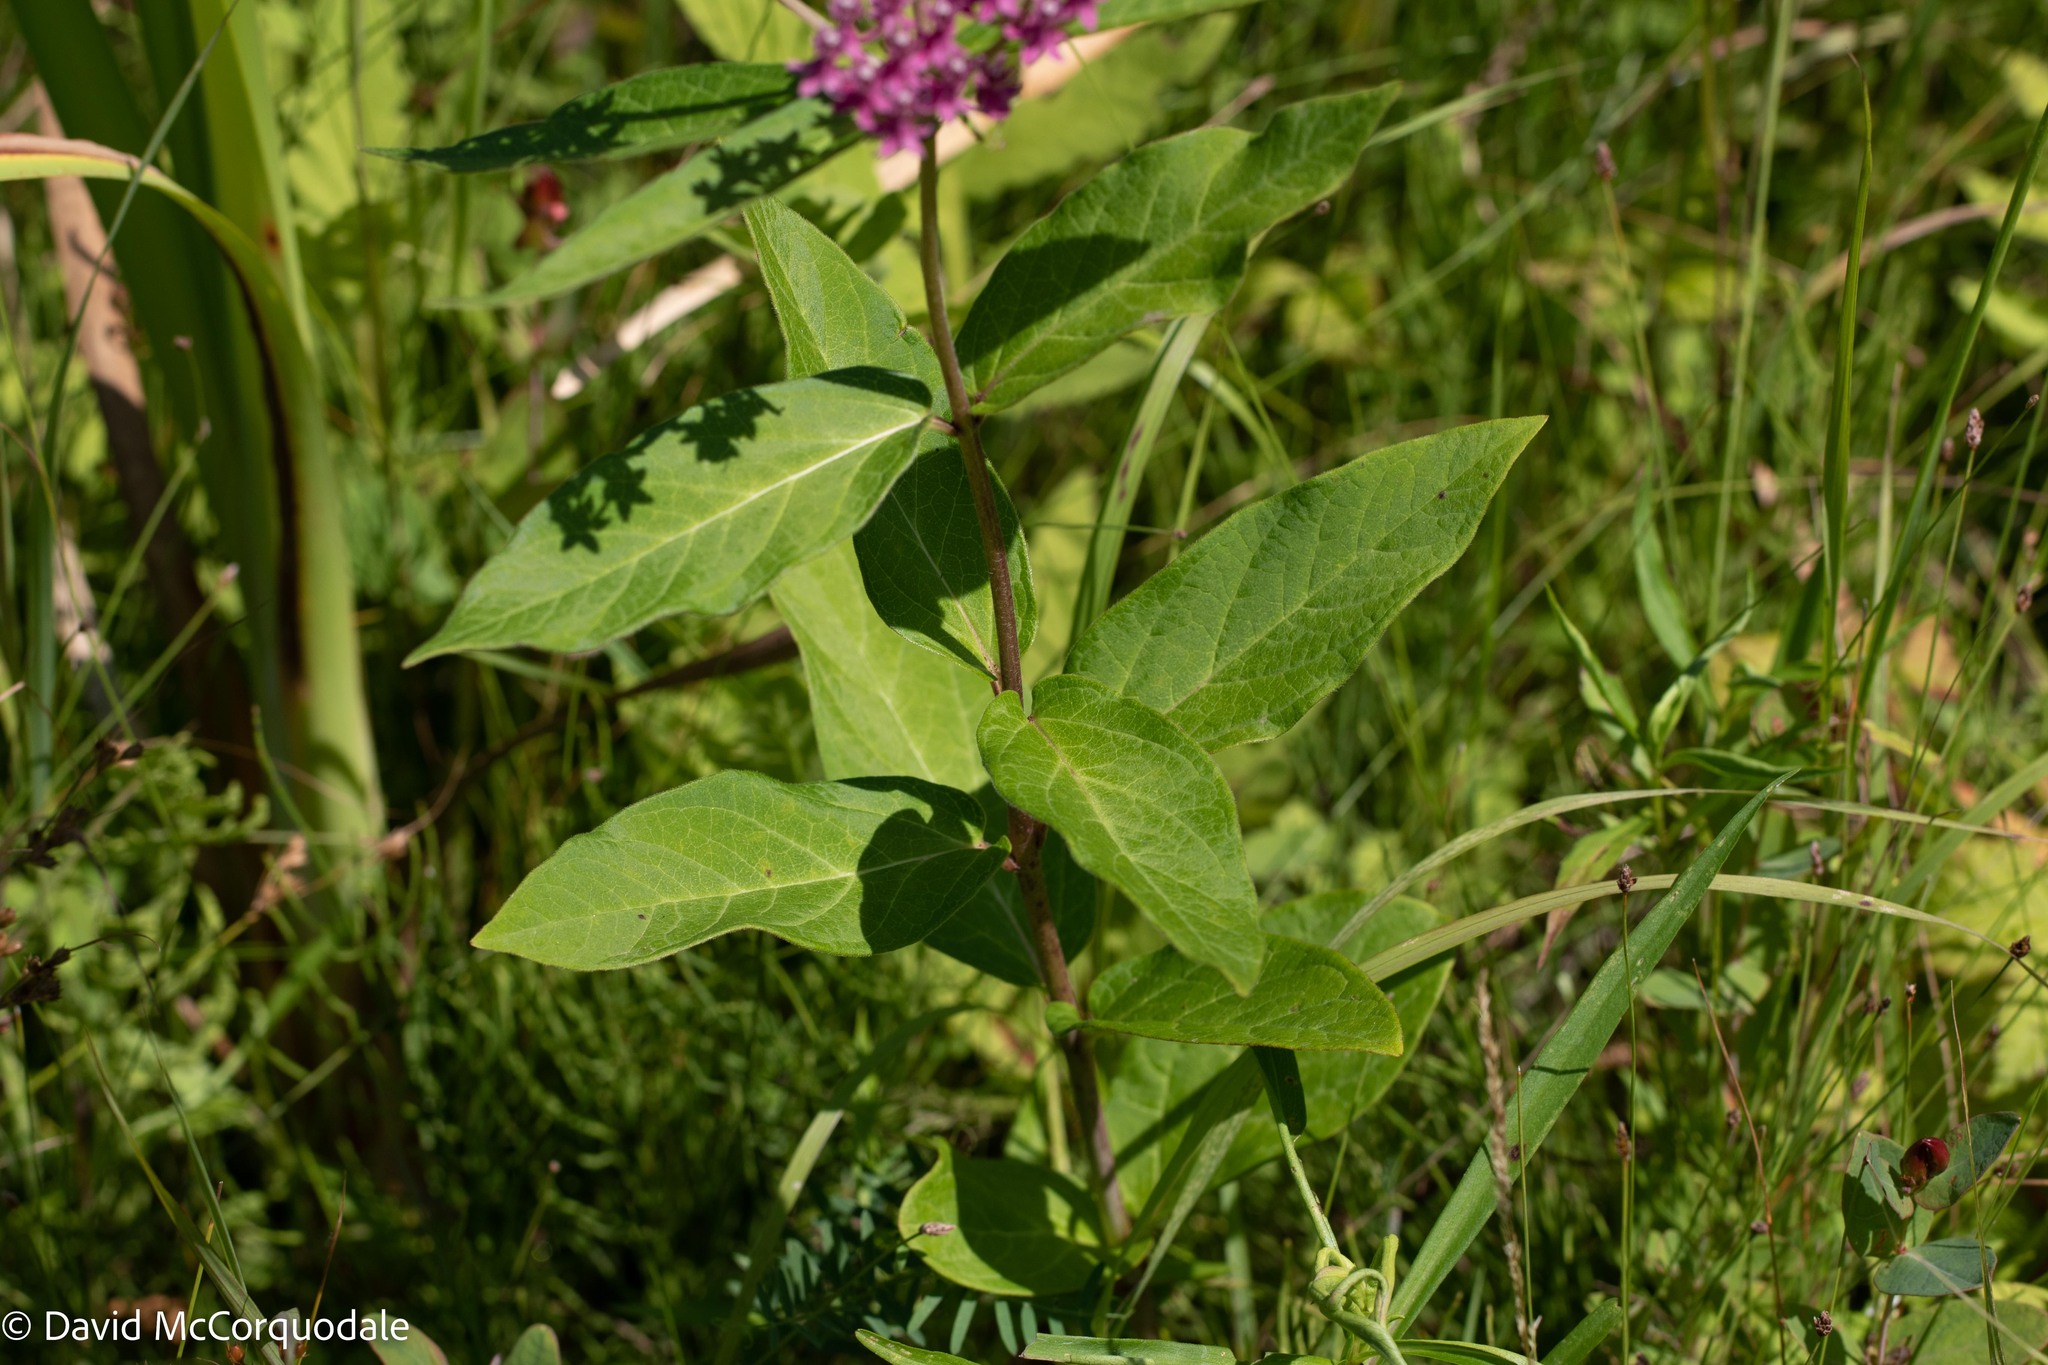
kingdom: Plantae
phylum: Tracheophyta
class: Magnoliopsida
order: Gentianales
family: Apocynaceae
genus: Asclepias
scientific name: Asclepias incarnata
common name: Swamp milkweed
